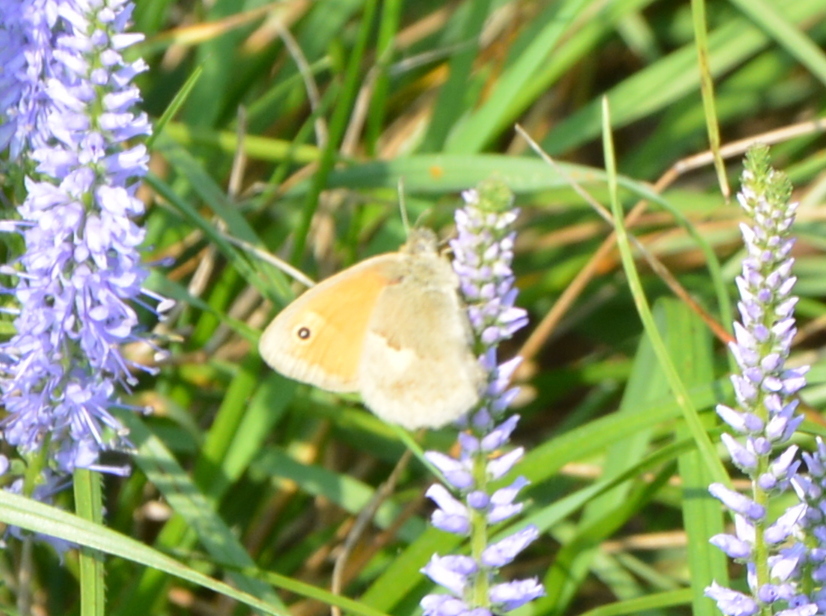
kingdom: Animalia
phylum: Arthropoda
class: Insecta
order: Lepidoptera
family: Nymphalidae
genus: Coenonympha
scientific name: Coenonympha pamphilus
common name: Small heath
